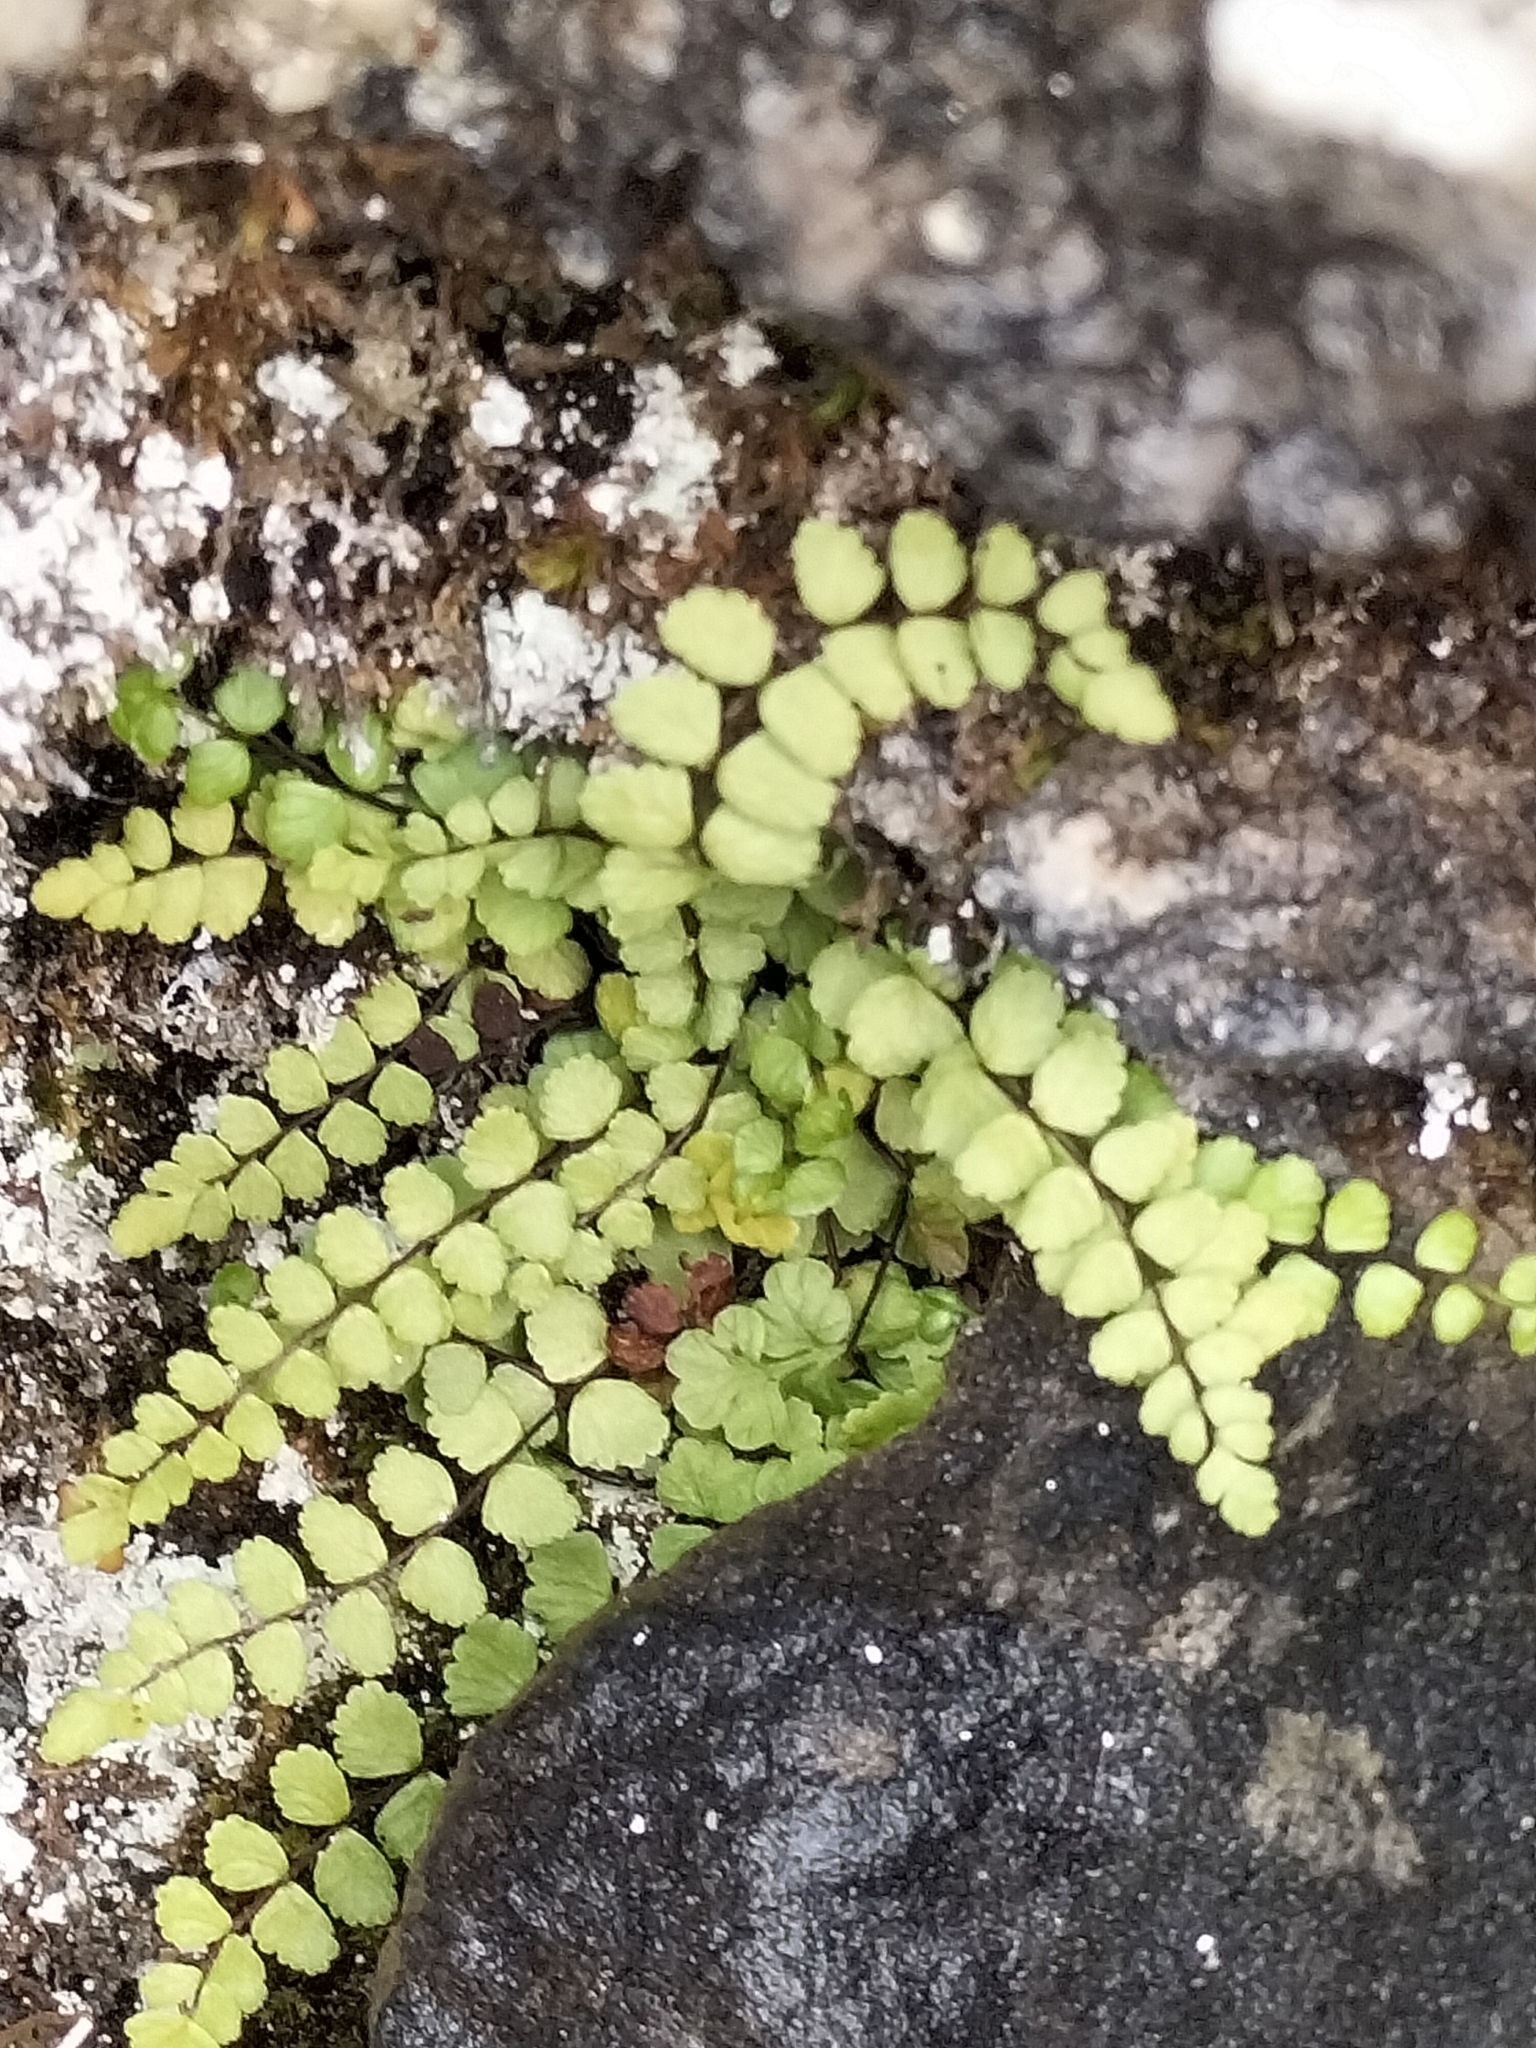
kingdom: Plantae
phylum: Tracheophyta
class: Polypodiopsida
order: Polypodiales
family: Aspleniaceae
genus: Asplenium
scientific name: Asplenium trichomanes
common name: Maidenhair spleenwort
